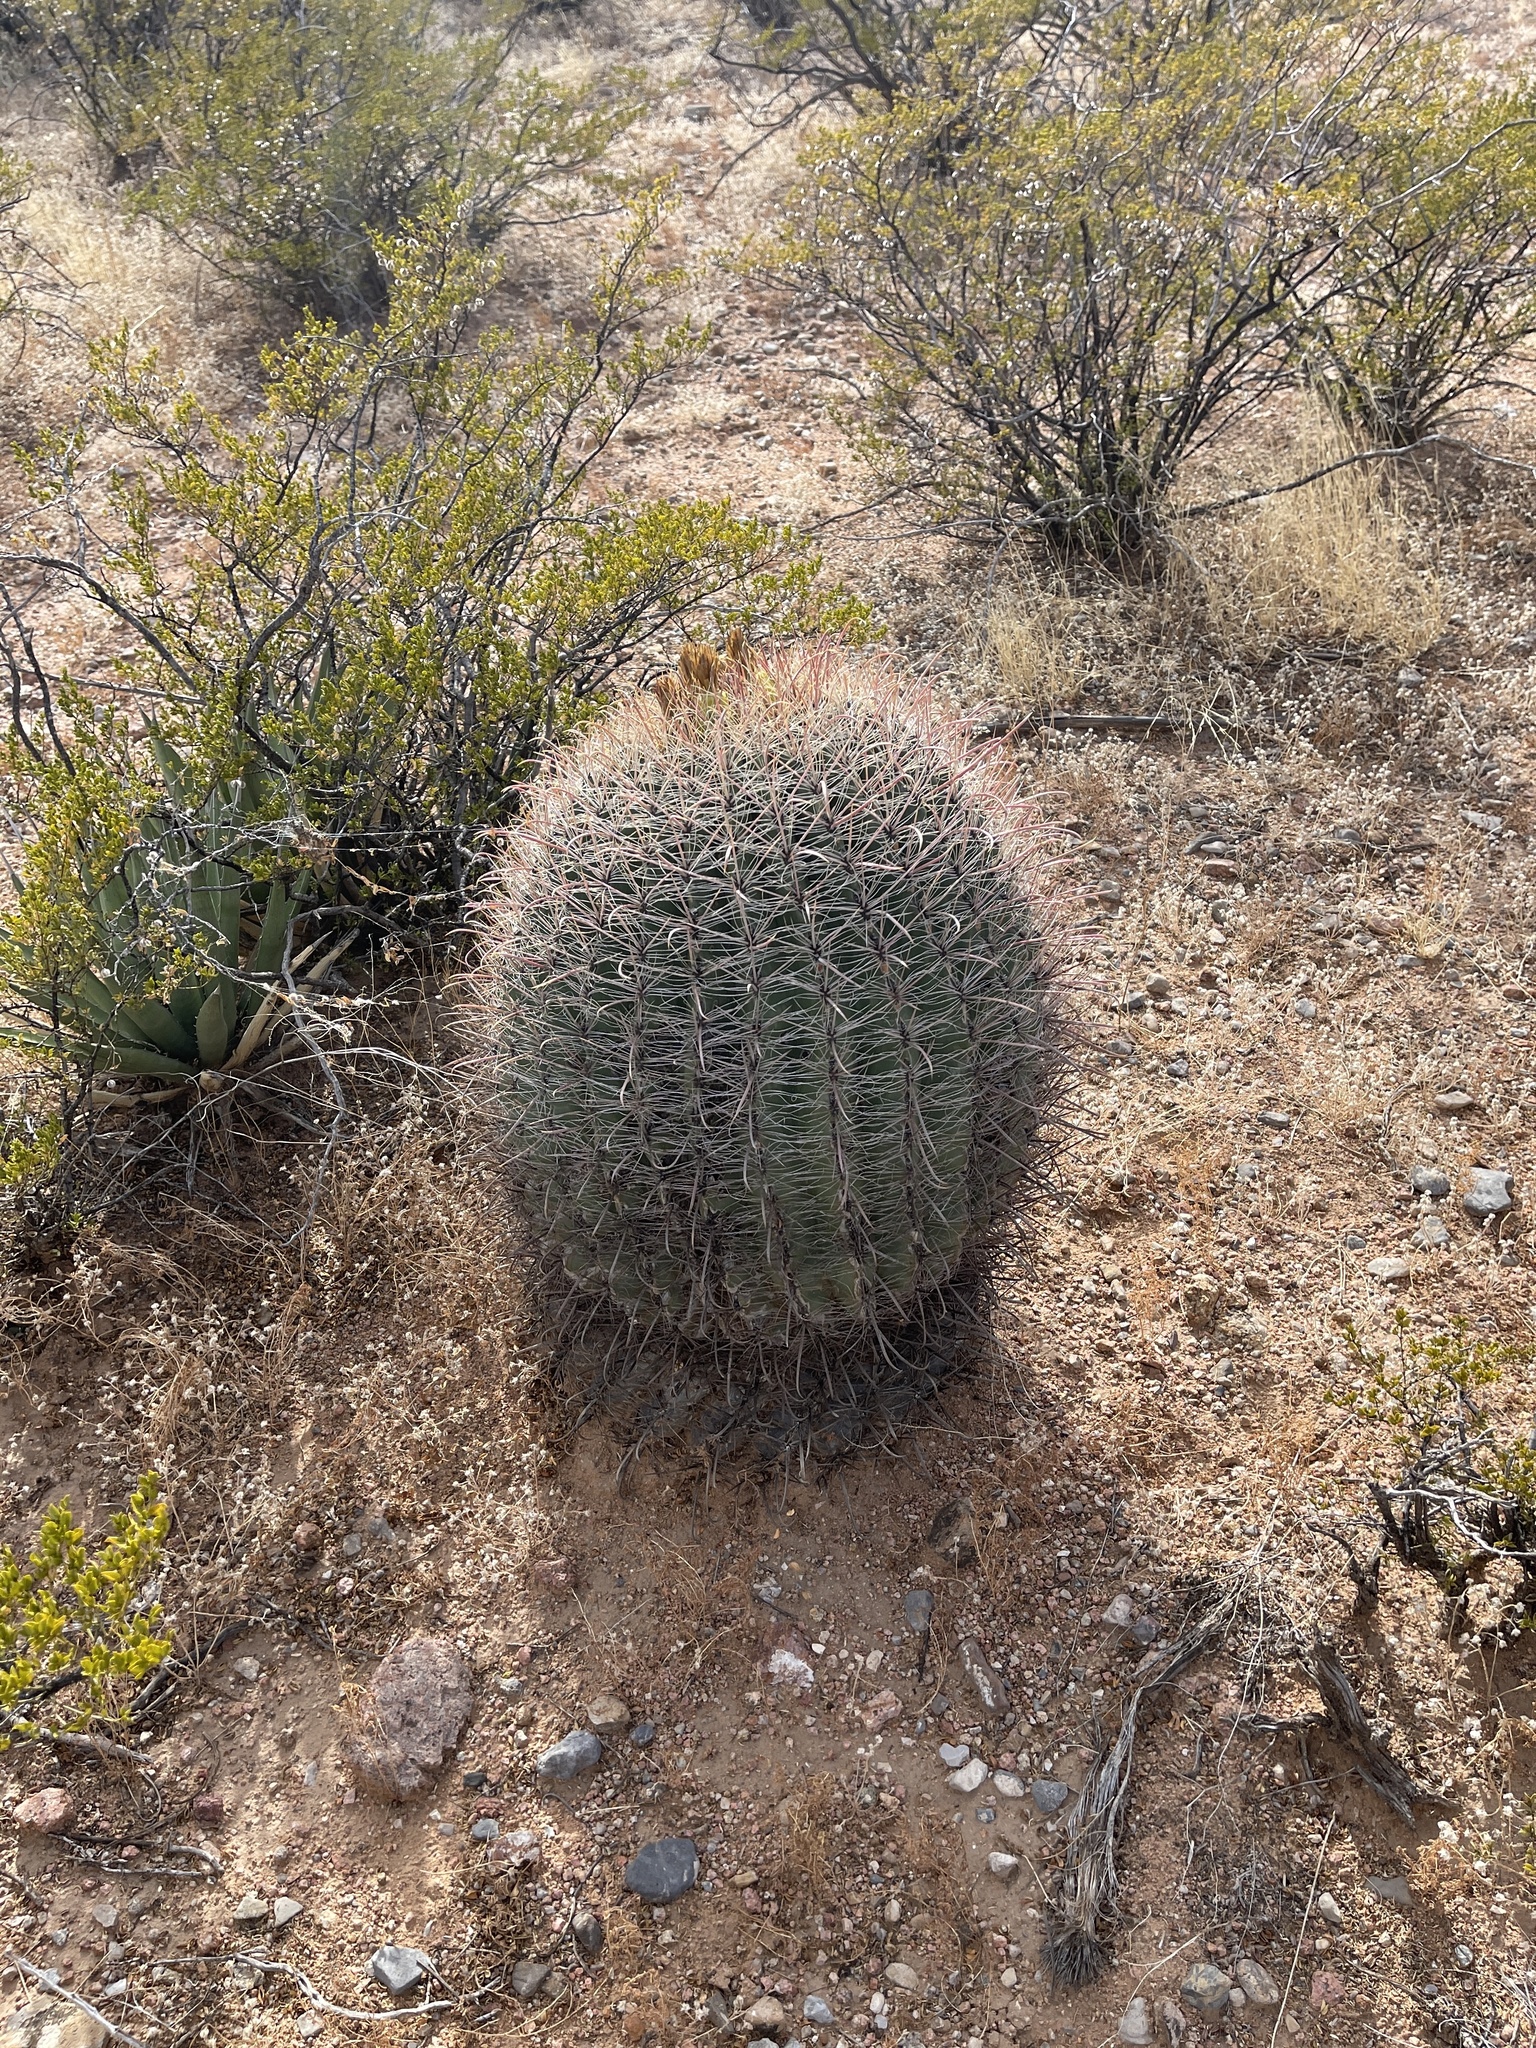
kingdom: Plantae
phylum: Tracheophyta
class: Magnoliopsida
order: Caryophyllales
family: Cactaceae
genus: Ferocactus
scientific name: Ferocactus wislizeni
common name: Candy barrel cactus
